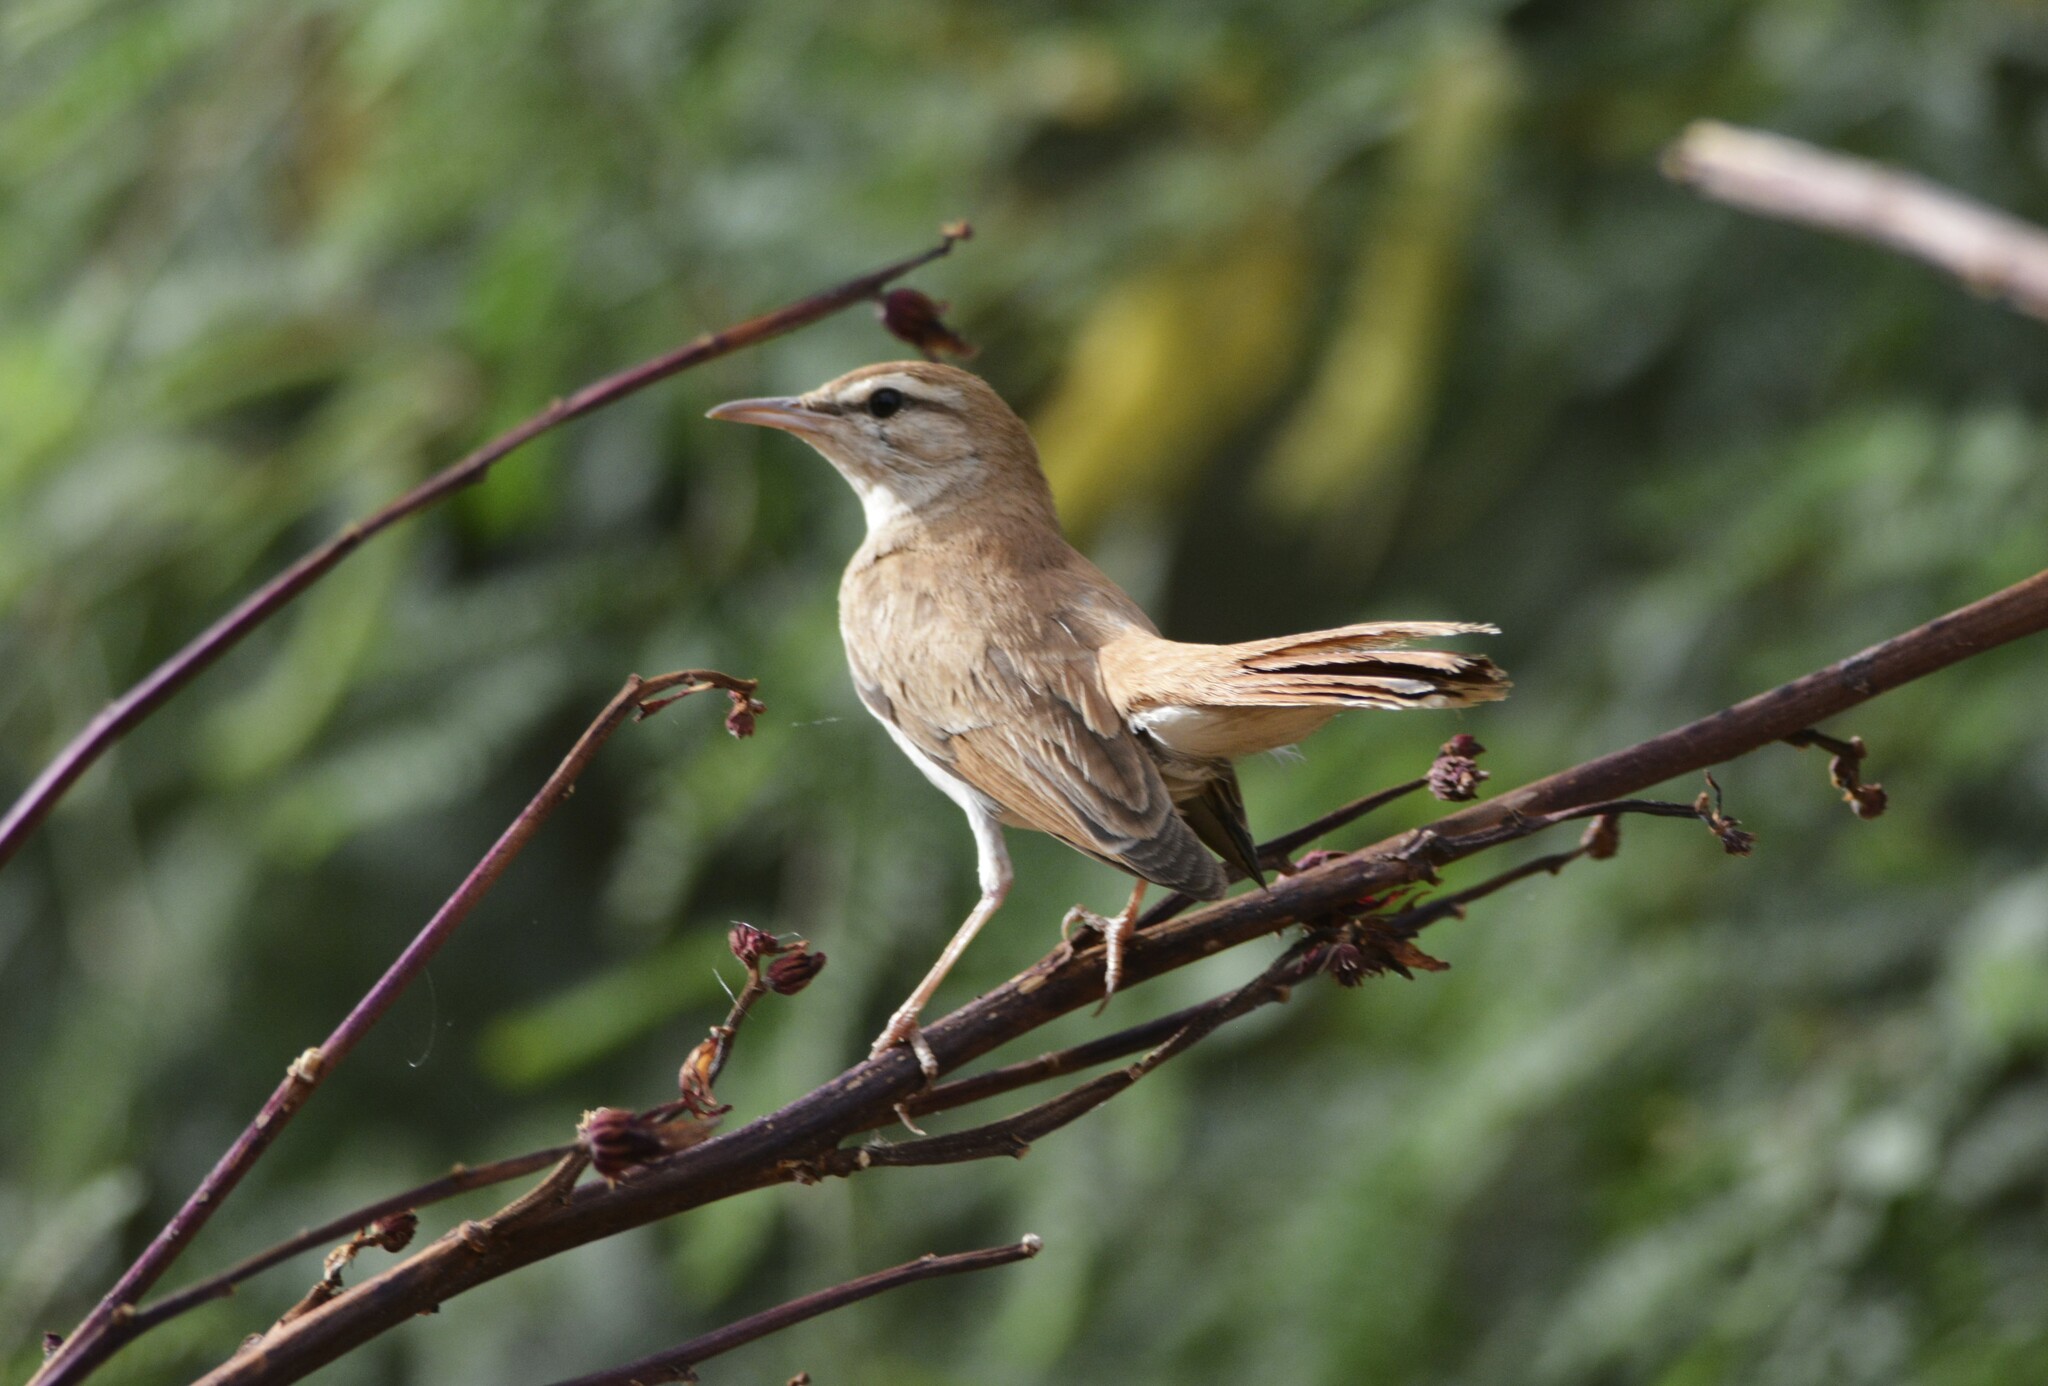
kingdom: Animalia
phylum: Chordata
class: Aves
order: Passeriformes
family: Muscicapidae
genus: Erythropygia
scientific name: Erythropygia galactotes
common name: Rufous-tailed scrub robin
